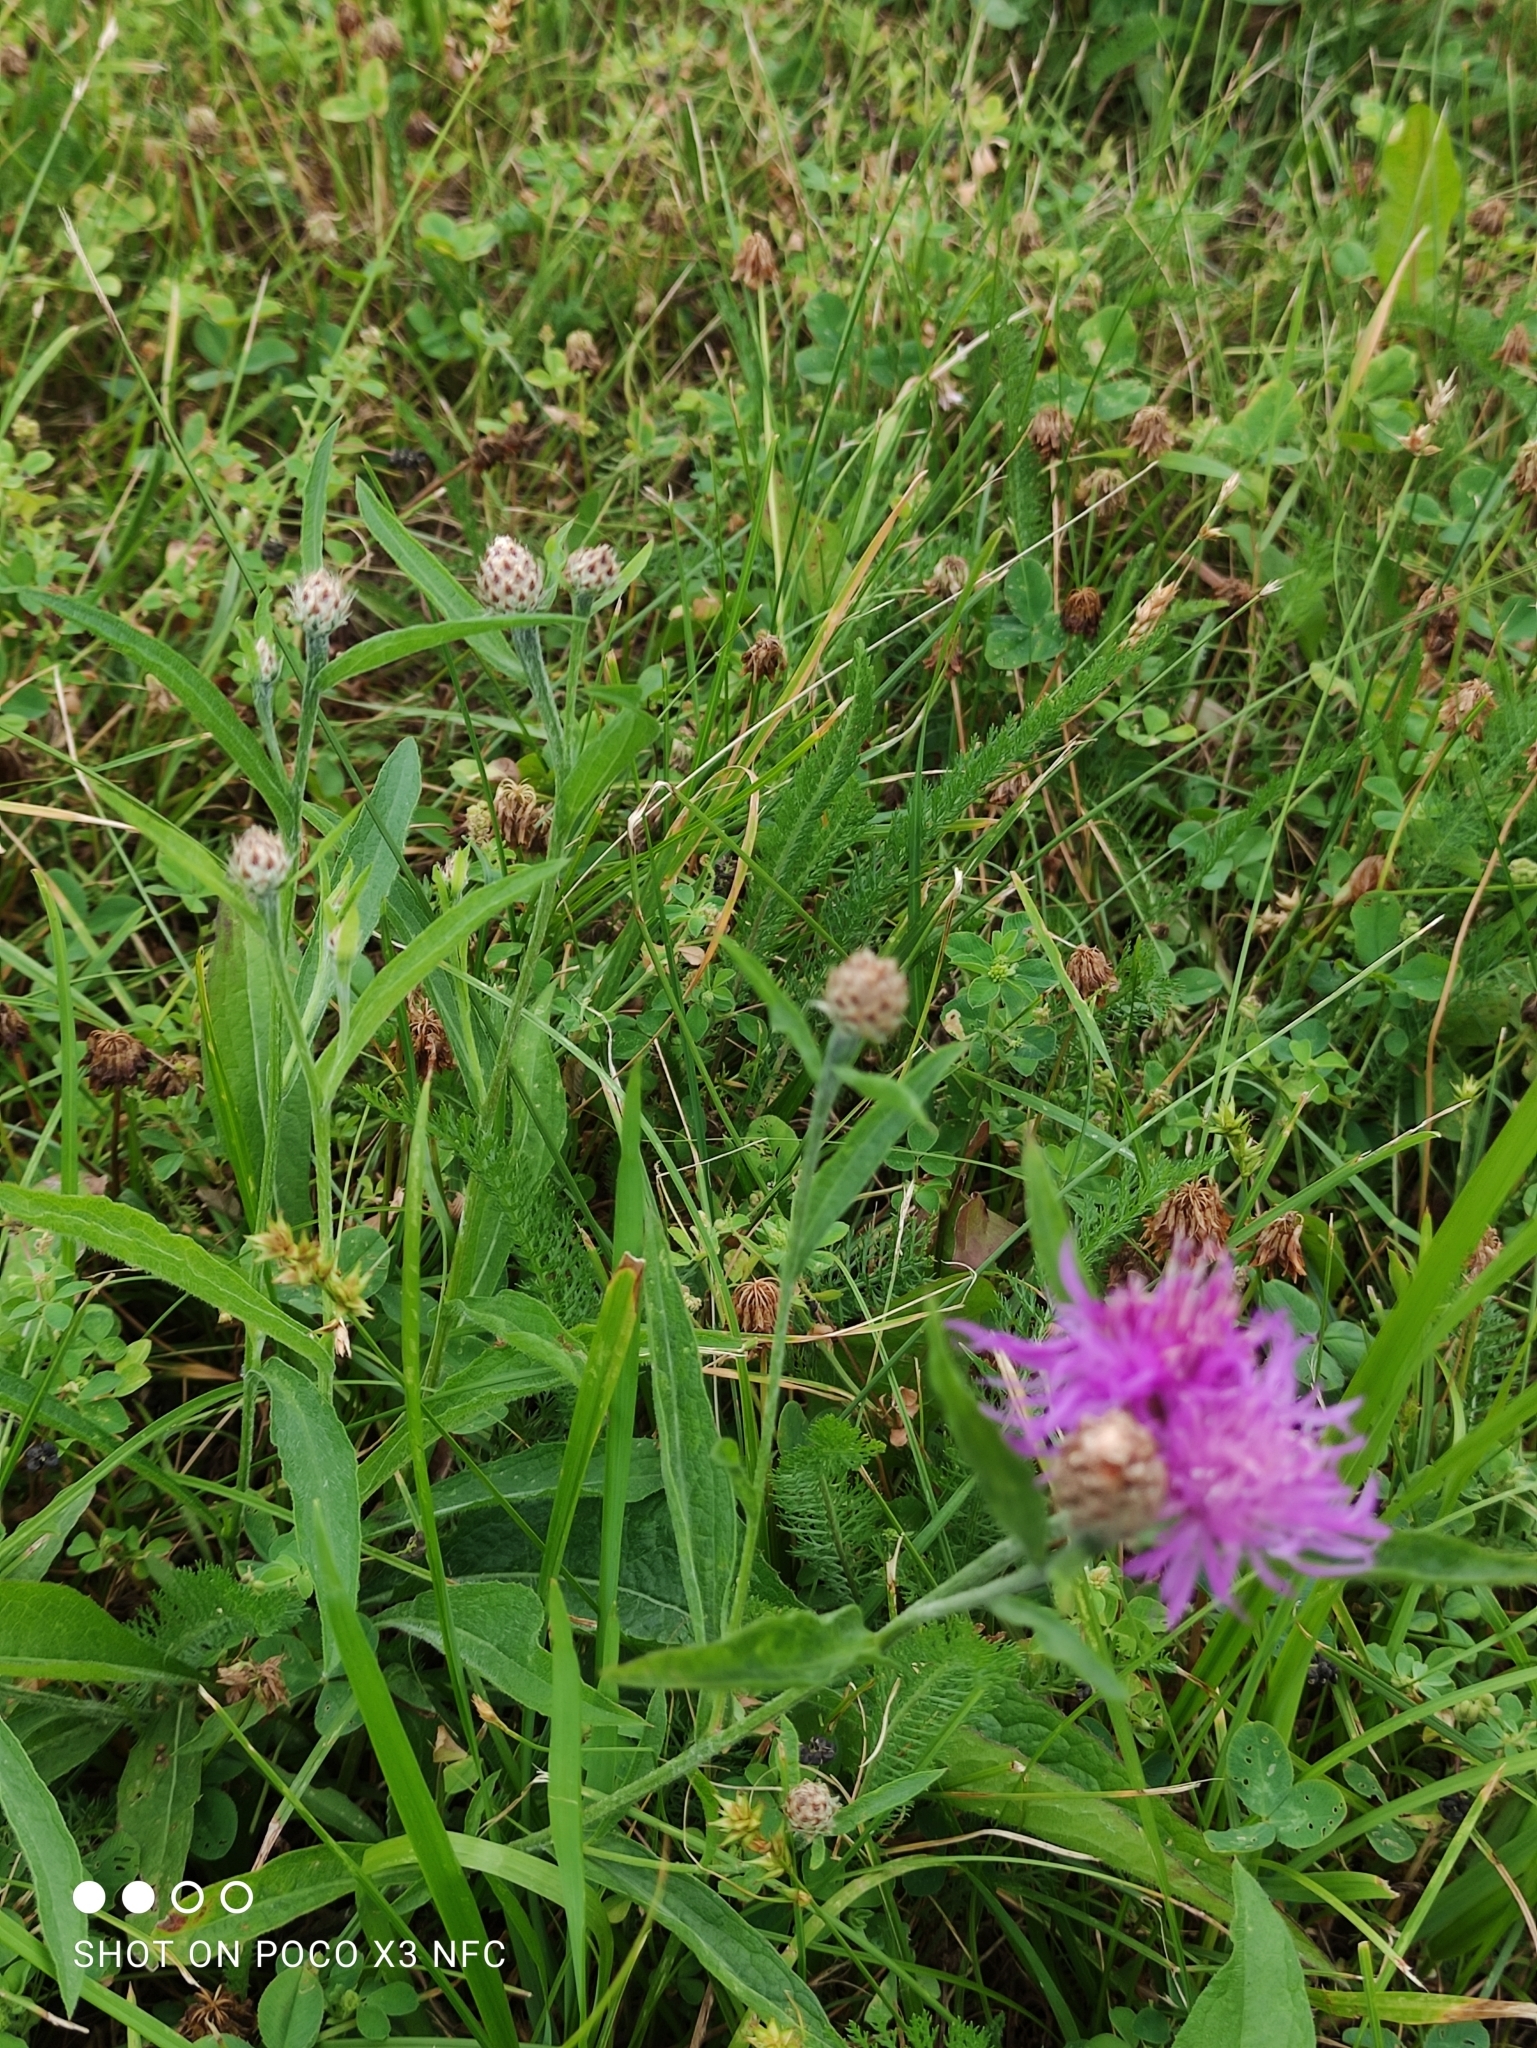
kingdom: Plantae
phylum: Tracheophyta
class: Magnoliopsida
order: Asterales
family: Asteraceae
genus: Centaurea
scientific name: Centaurea jacea
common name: Brown knapweed
